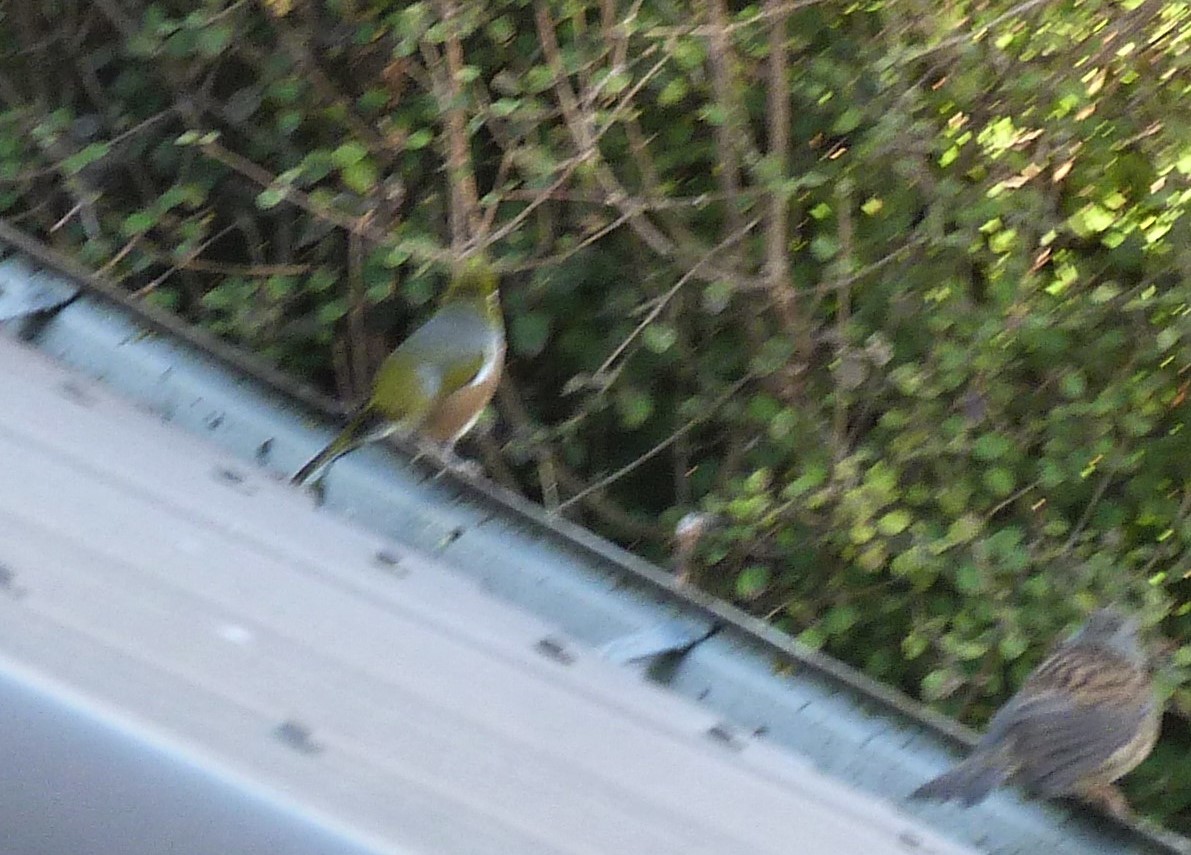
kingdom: Animalia
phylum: Chordata
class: Aves
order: Passeriformes
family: Zosteropidae
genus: Zosterops
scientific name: Zosterops lateralis
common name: Silvereye
